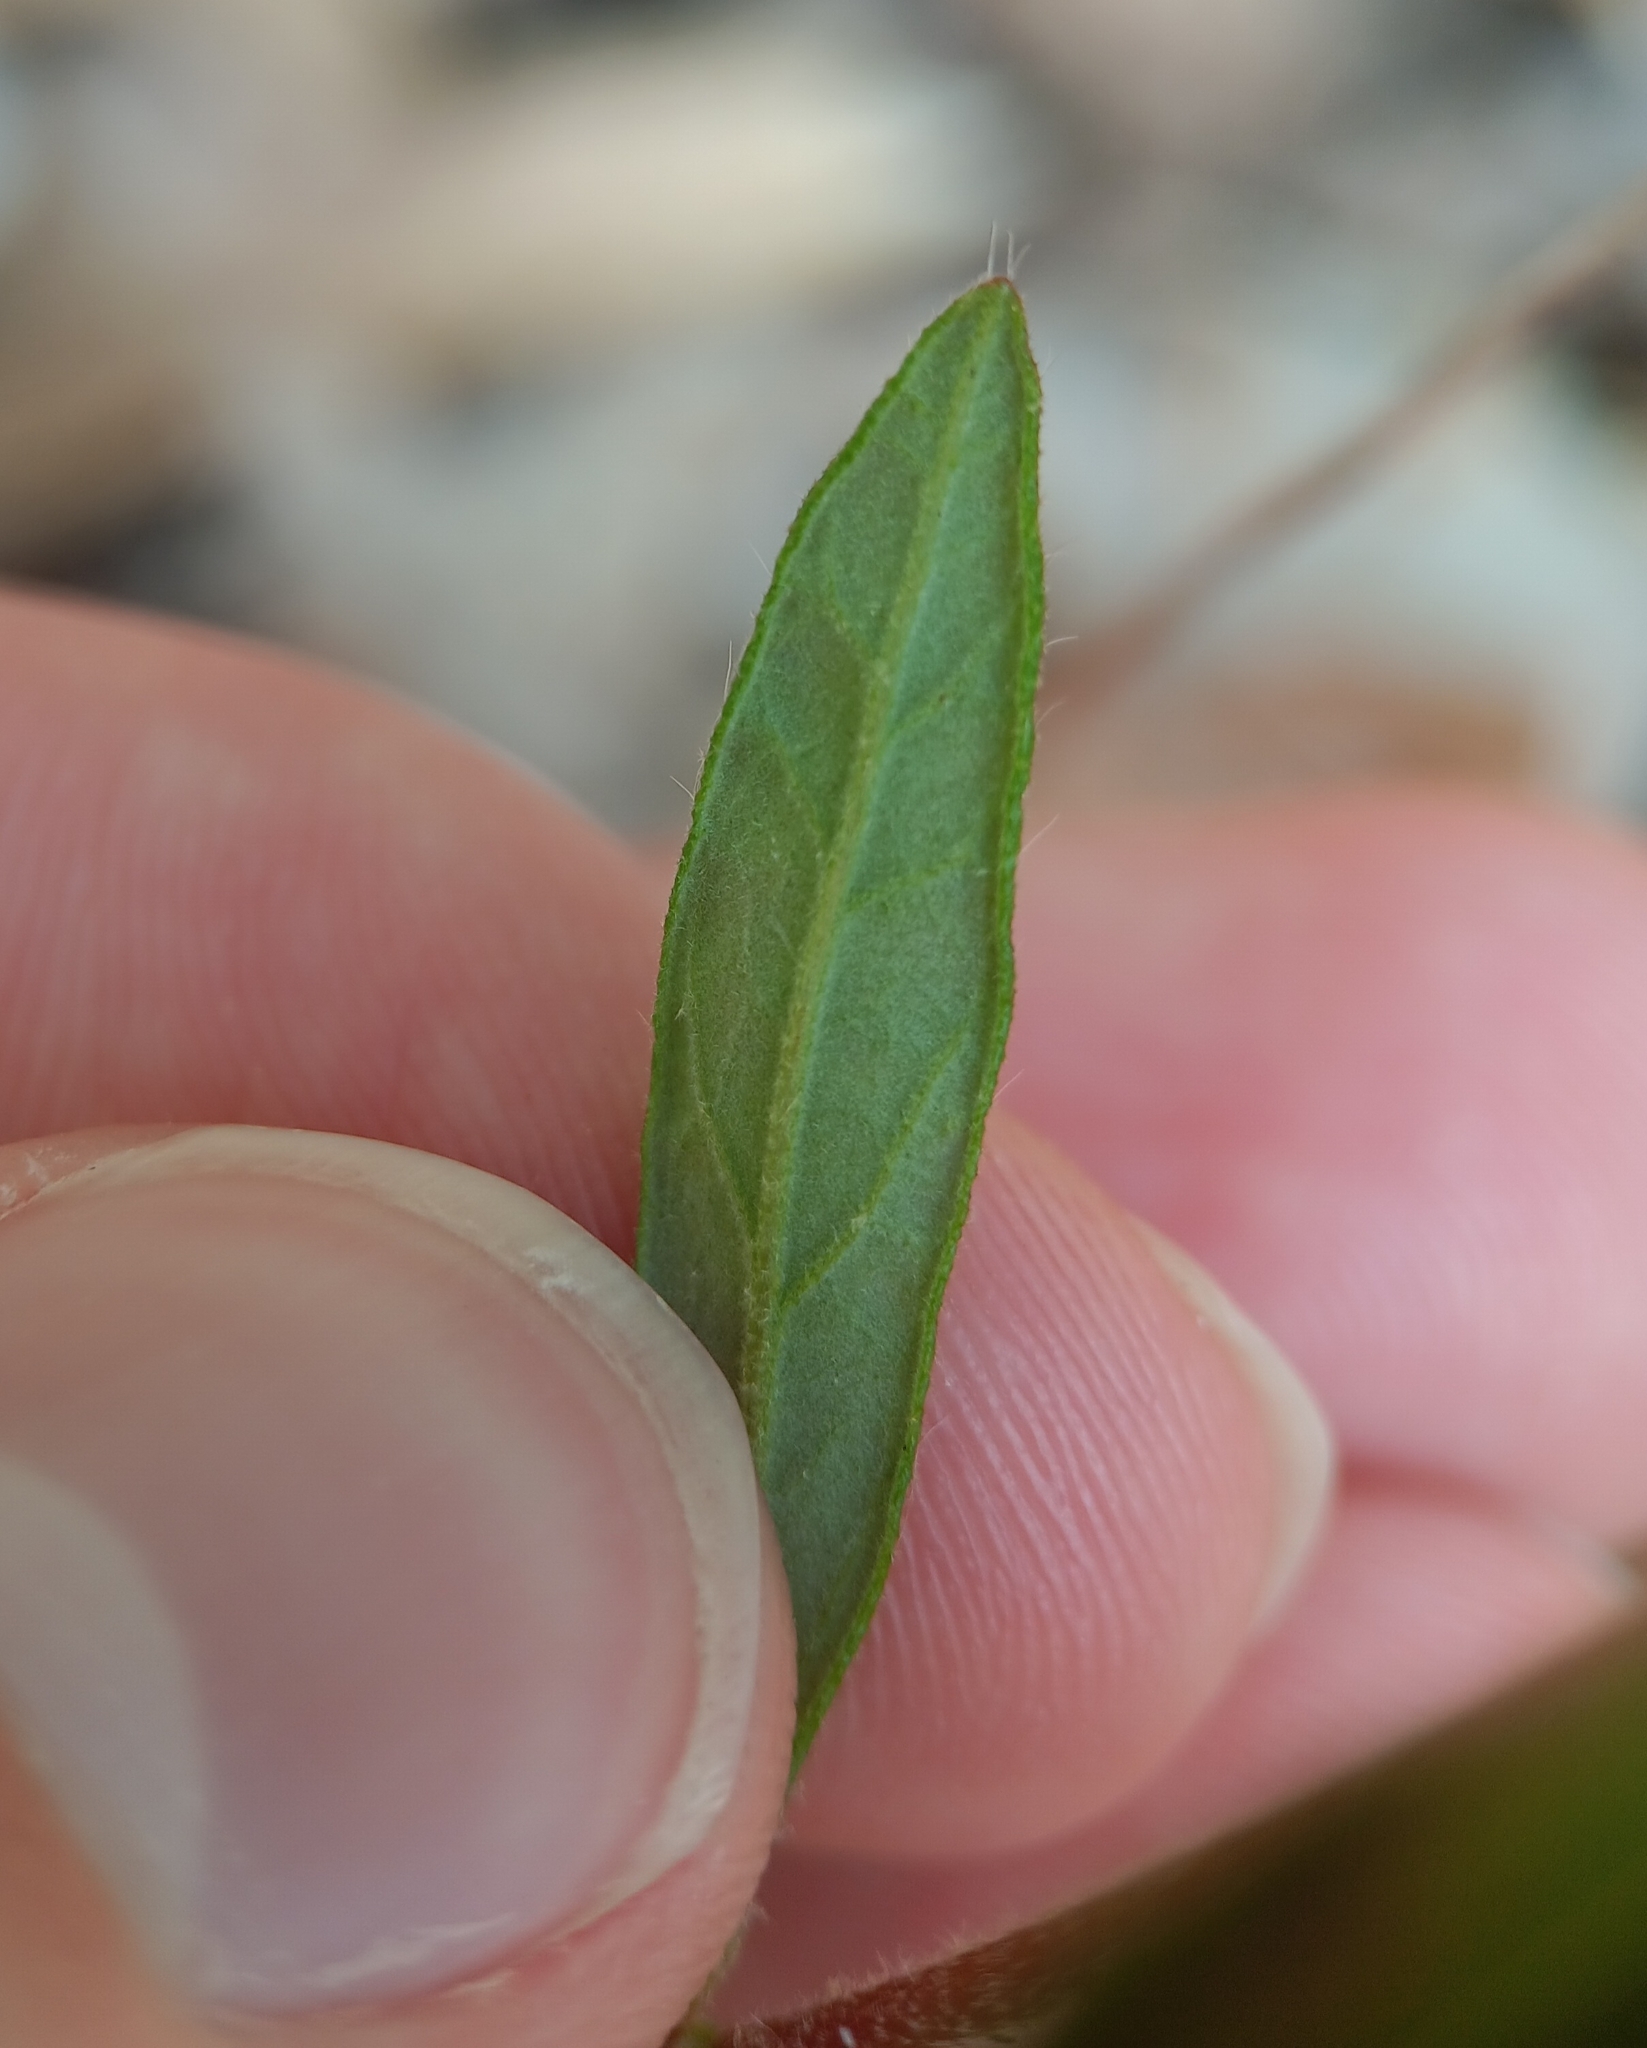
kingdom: Plantae
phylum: Tracheophyta
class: Magnoliopsida
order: Malvales
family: Cistaceae
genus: Crocanthemum
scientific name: Crocanthemum canadense
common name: Canada frostweed
